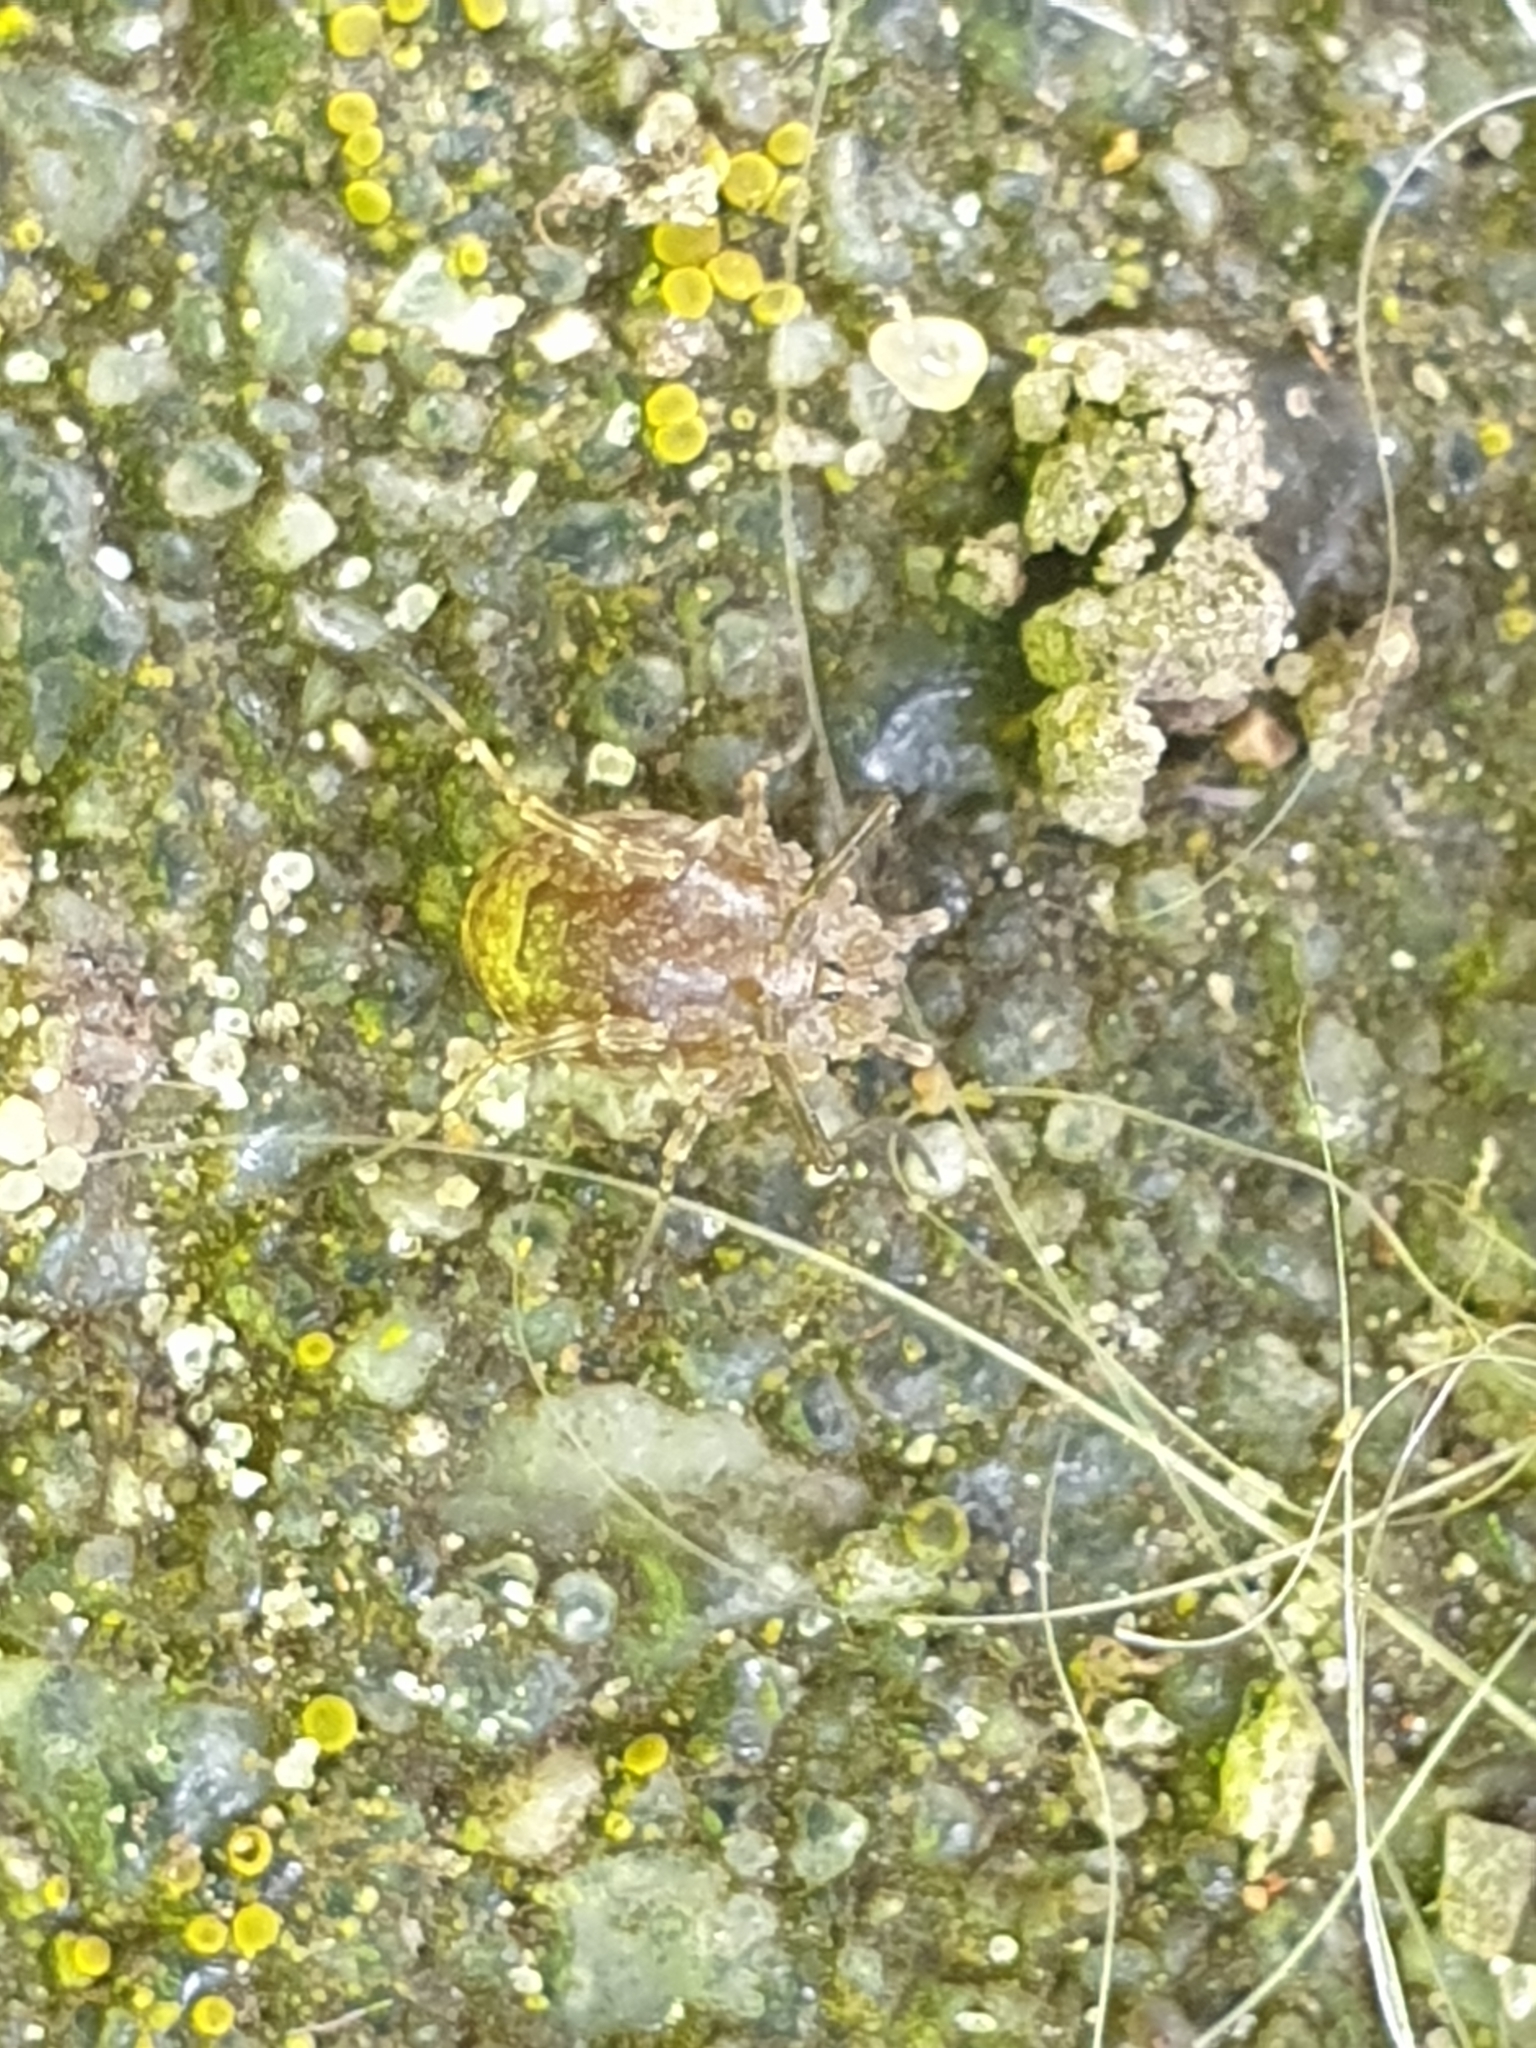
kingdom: Animalia
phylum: Arthropoda
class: Arachnida
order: Opiliones
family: Phalangiidae
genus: Odiellus
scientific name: Odiellus spinosus
